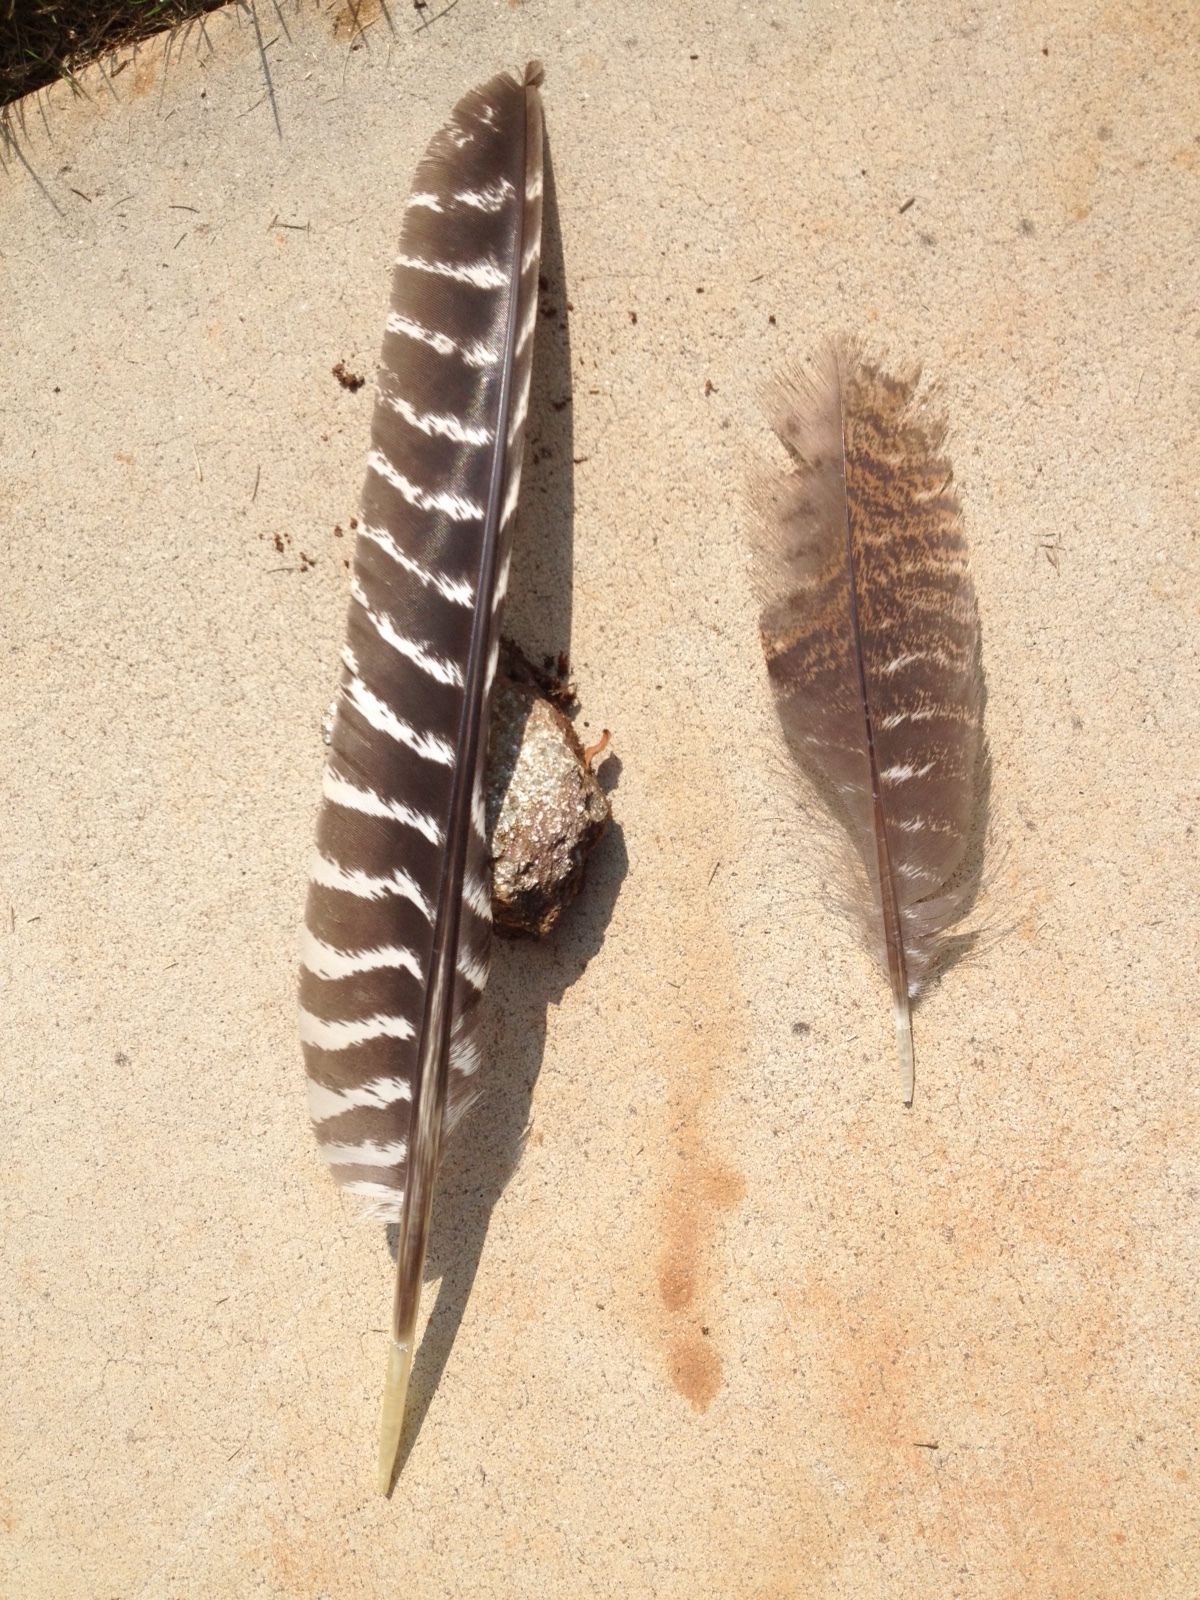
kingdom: Animalia
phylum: Chordata
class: Aves
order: Galliformes
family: Phasianidae
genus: Meleagris
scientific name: Meleagris gallopavo
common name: Wild turkey
